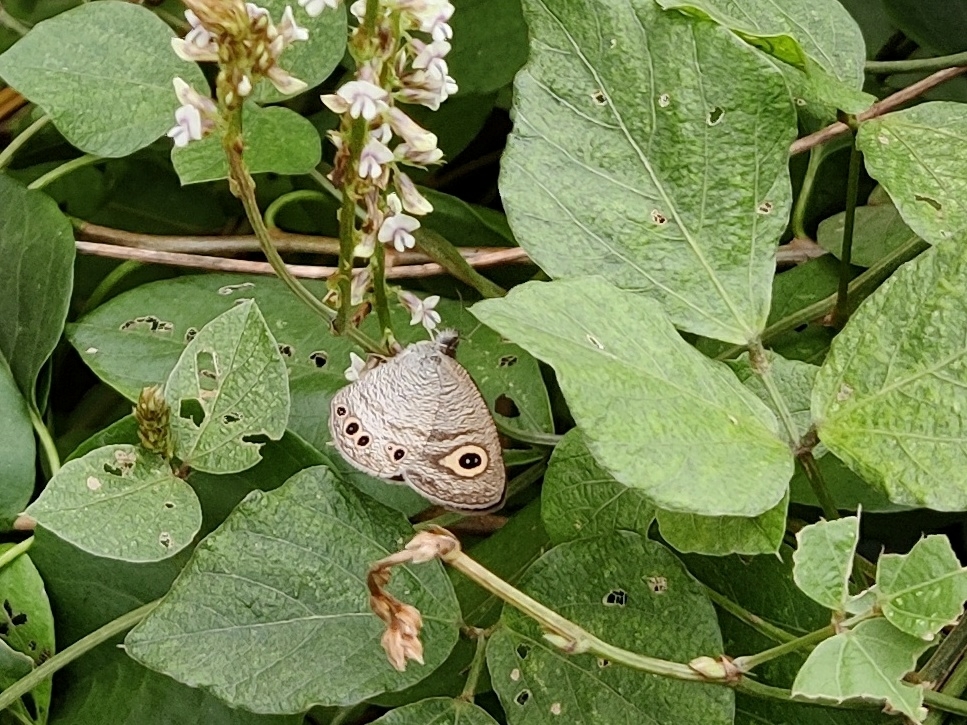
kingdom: Animalia
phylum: Arthropoda
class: Insecta
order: Lepidoptera
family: Nymphalidae
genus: Ypthima
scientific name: Ypthima huebneri
